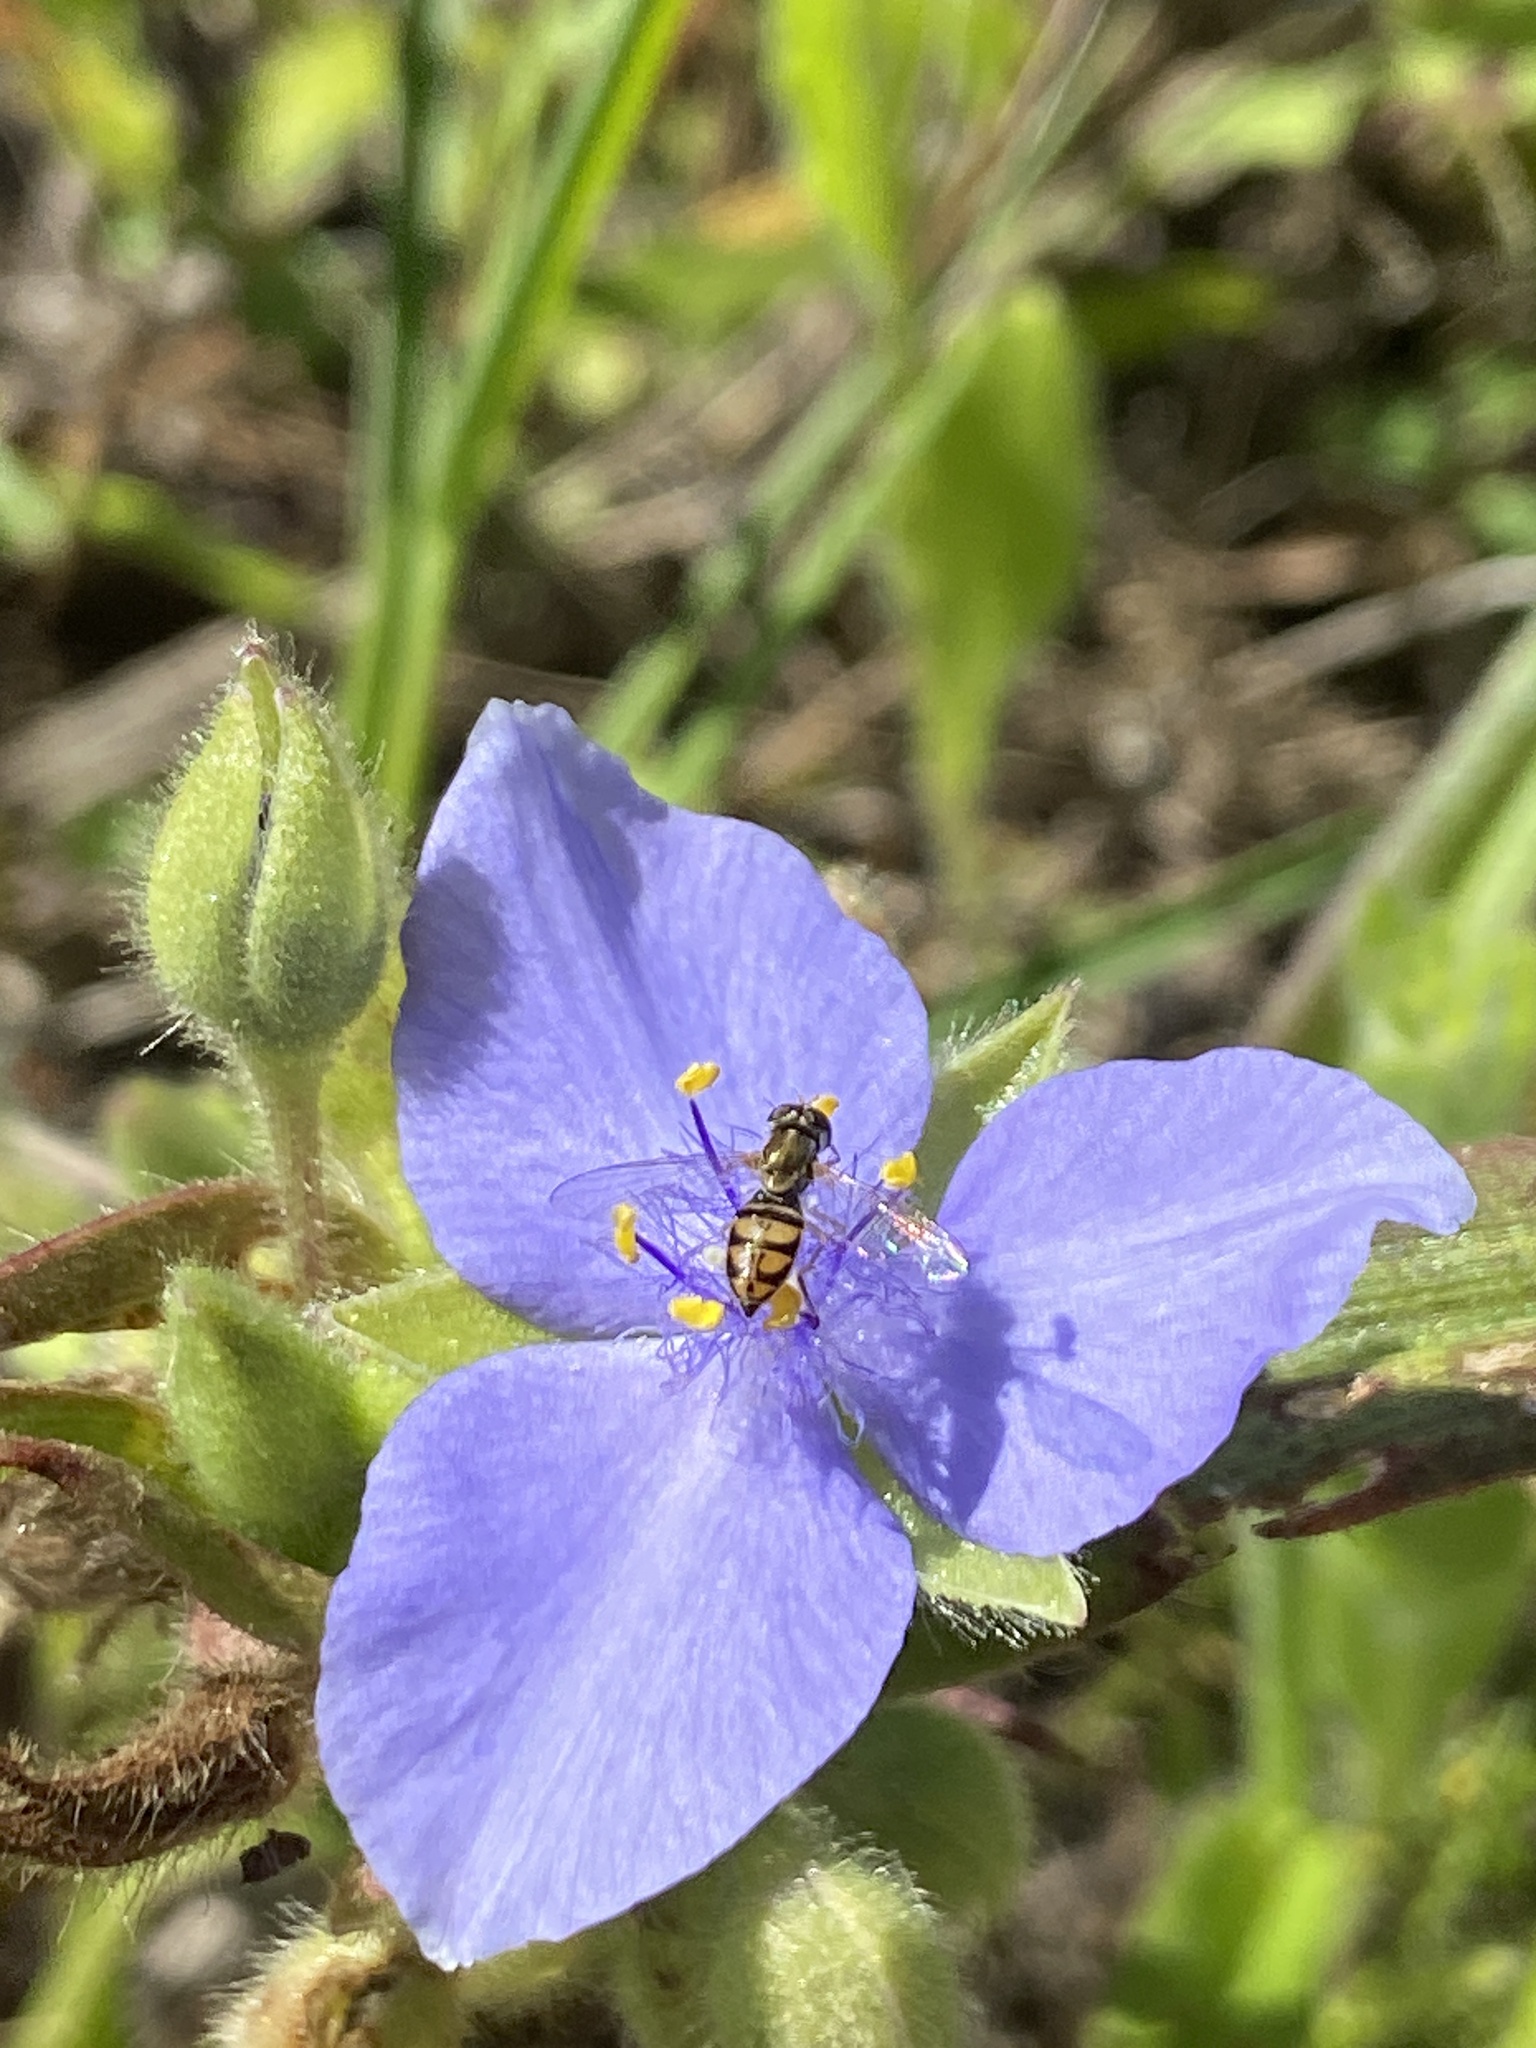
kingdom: Animalia
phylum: Arthropoda
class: Insecta
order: Diptera
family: Syrphidae
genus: Toxomerus
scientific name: Toxomerus marginatus
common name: Syrphid fly
